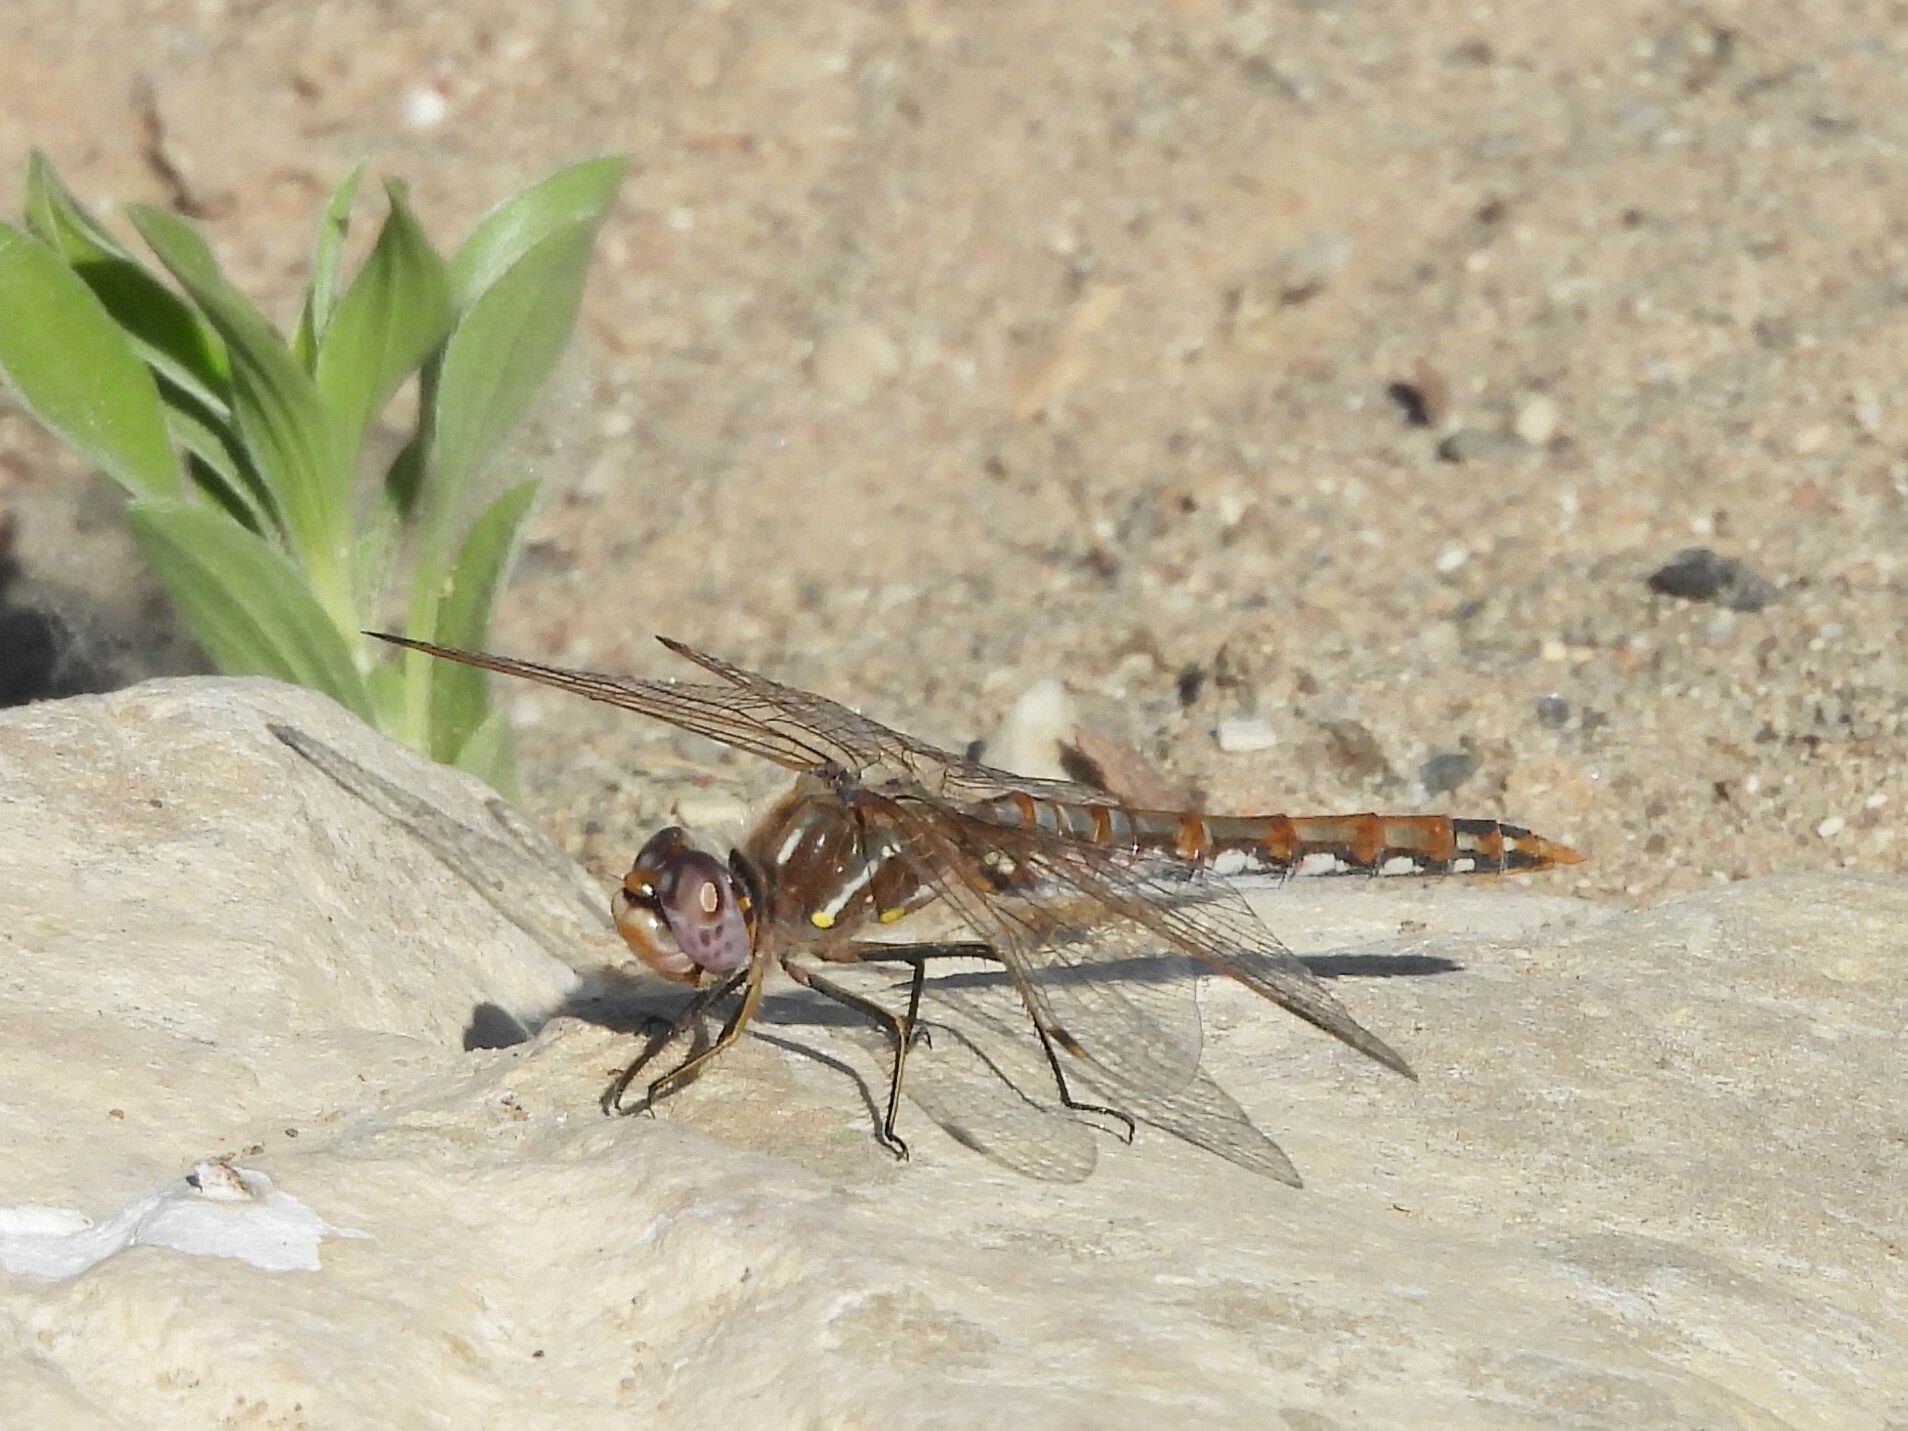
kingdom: Animalia
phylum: Arthropoda
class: Insecta
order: Odonata
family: Libellulidae
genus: Sympetrum
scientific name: Sympetrum corruptum
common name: Variegated meadowhawk
